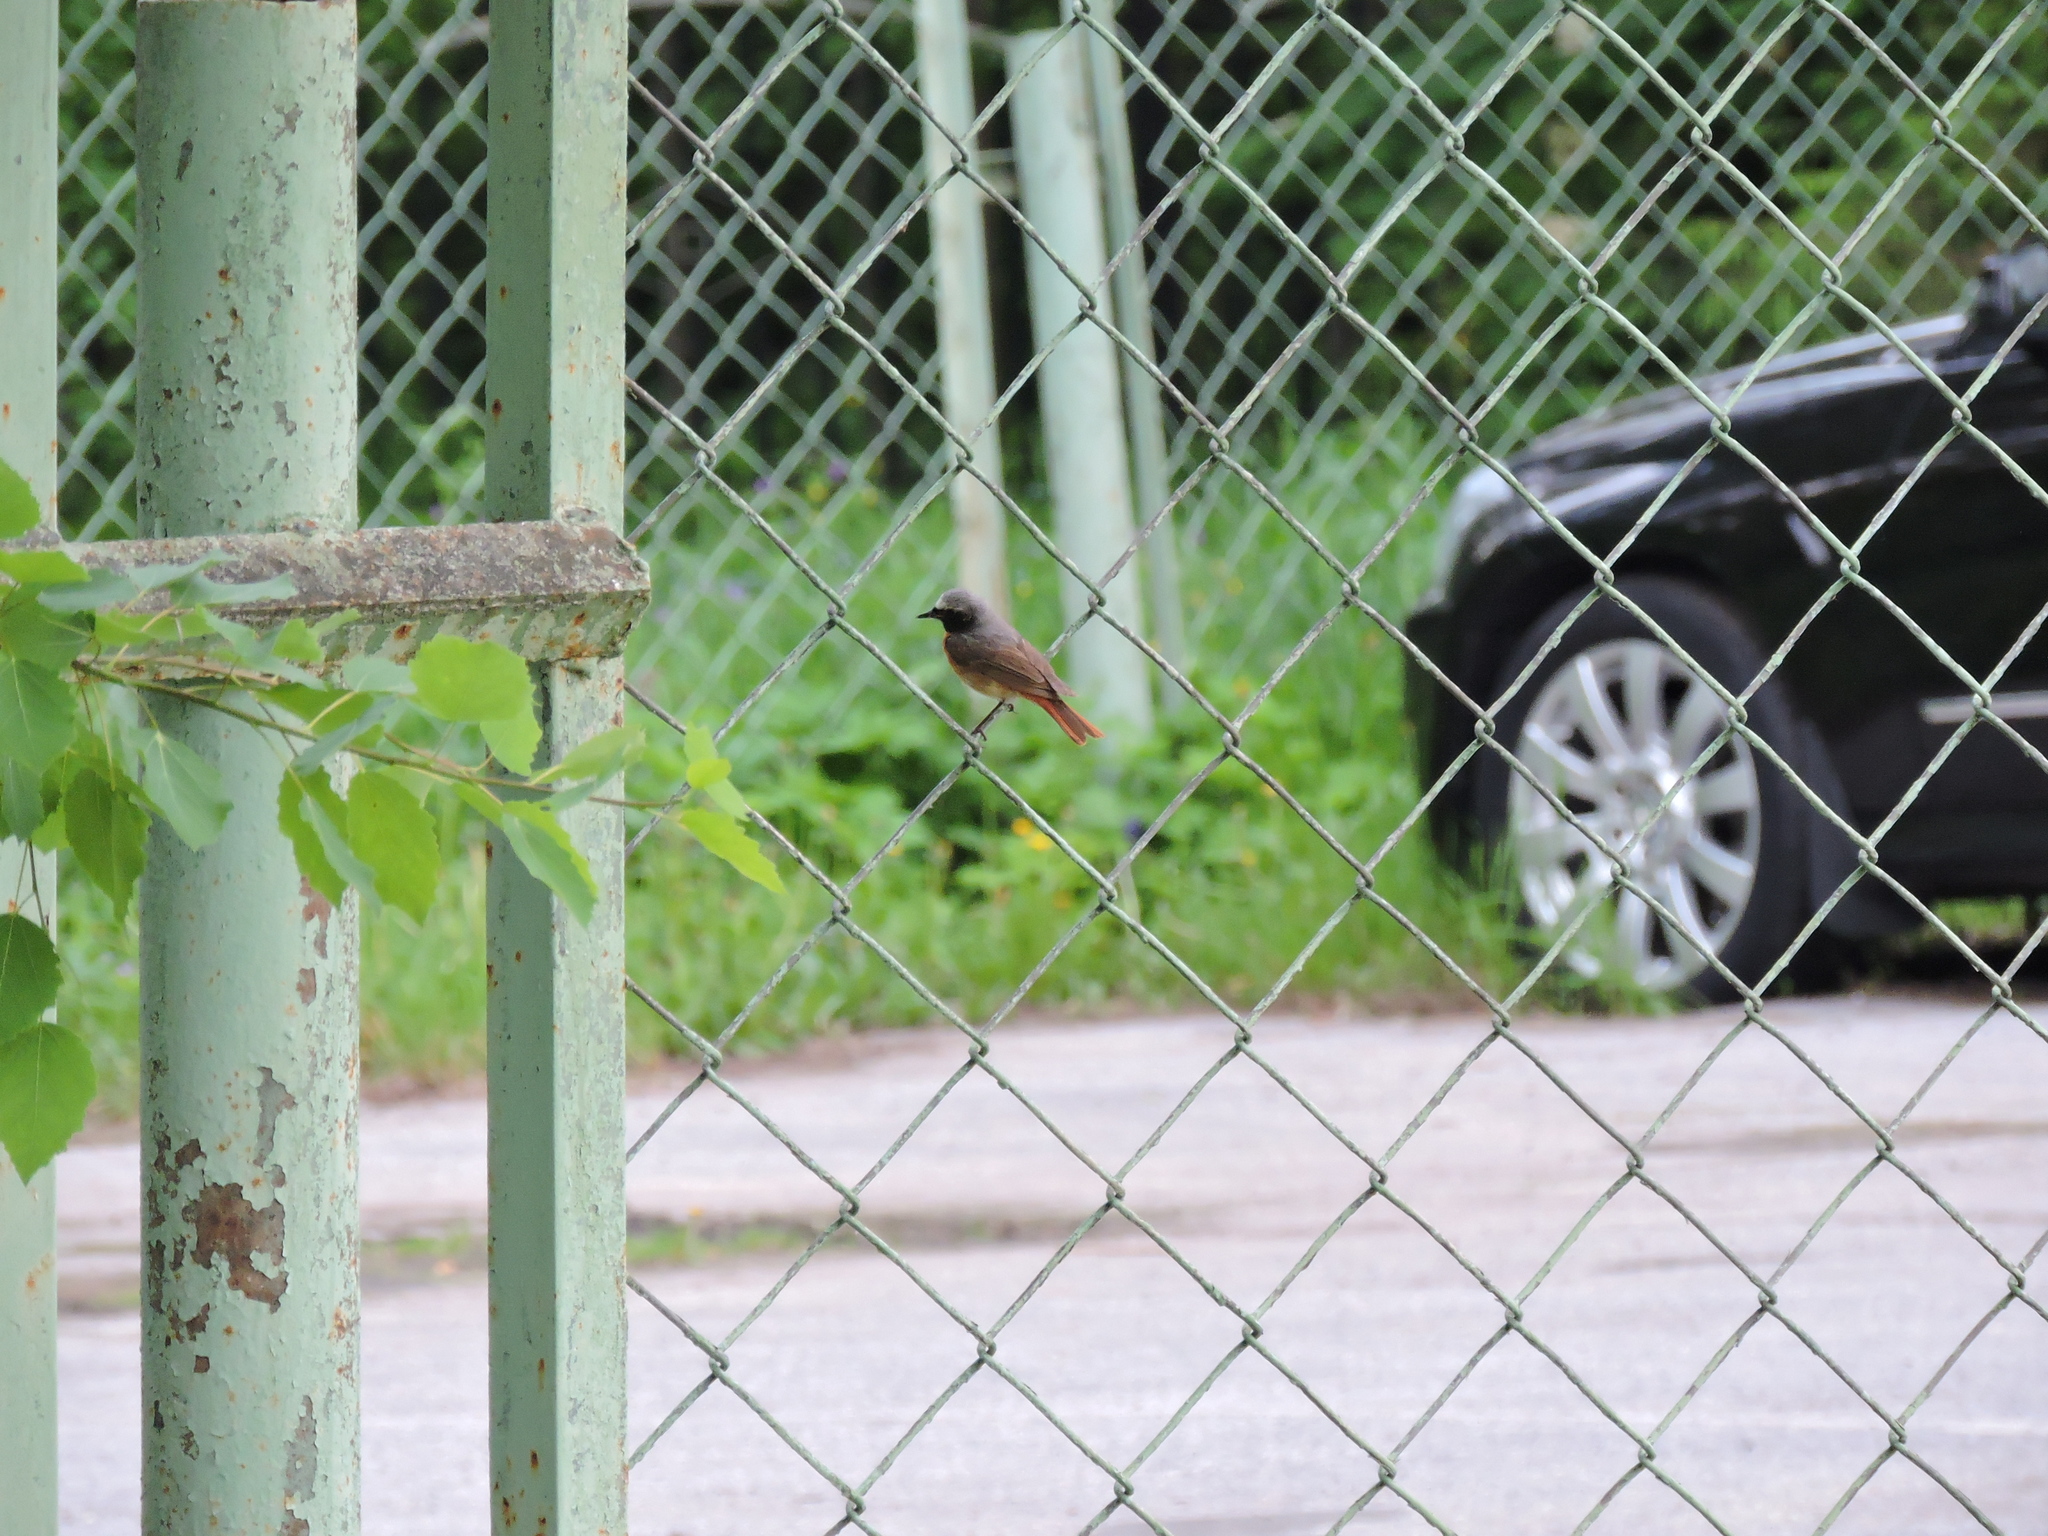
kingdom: Animalia
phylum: Chordata
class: Aves
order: Passeriformes
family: Muscicapidae
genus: Phoenicurus
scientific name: Phoenicurus phoenicurus
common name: Common redstart
